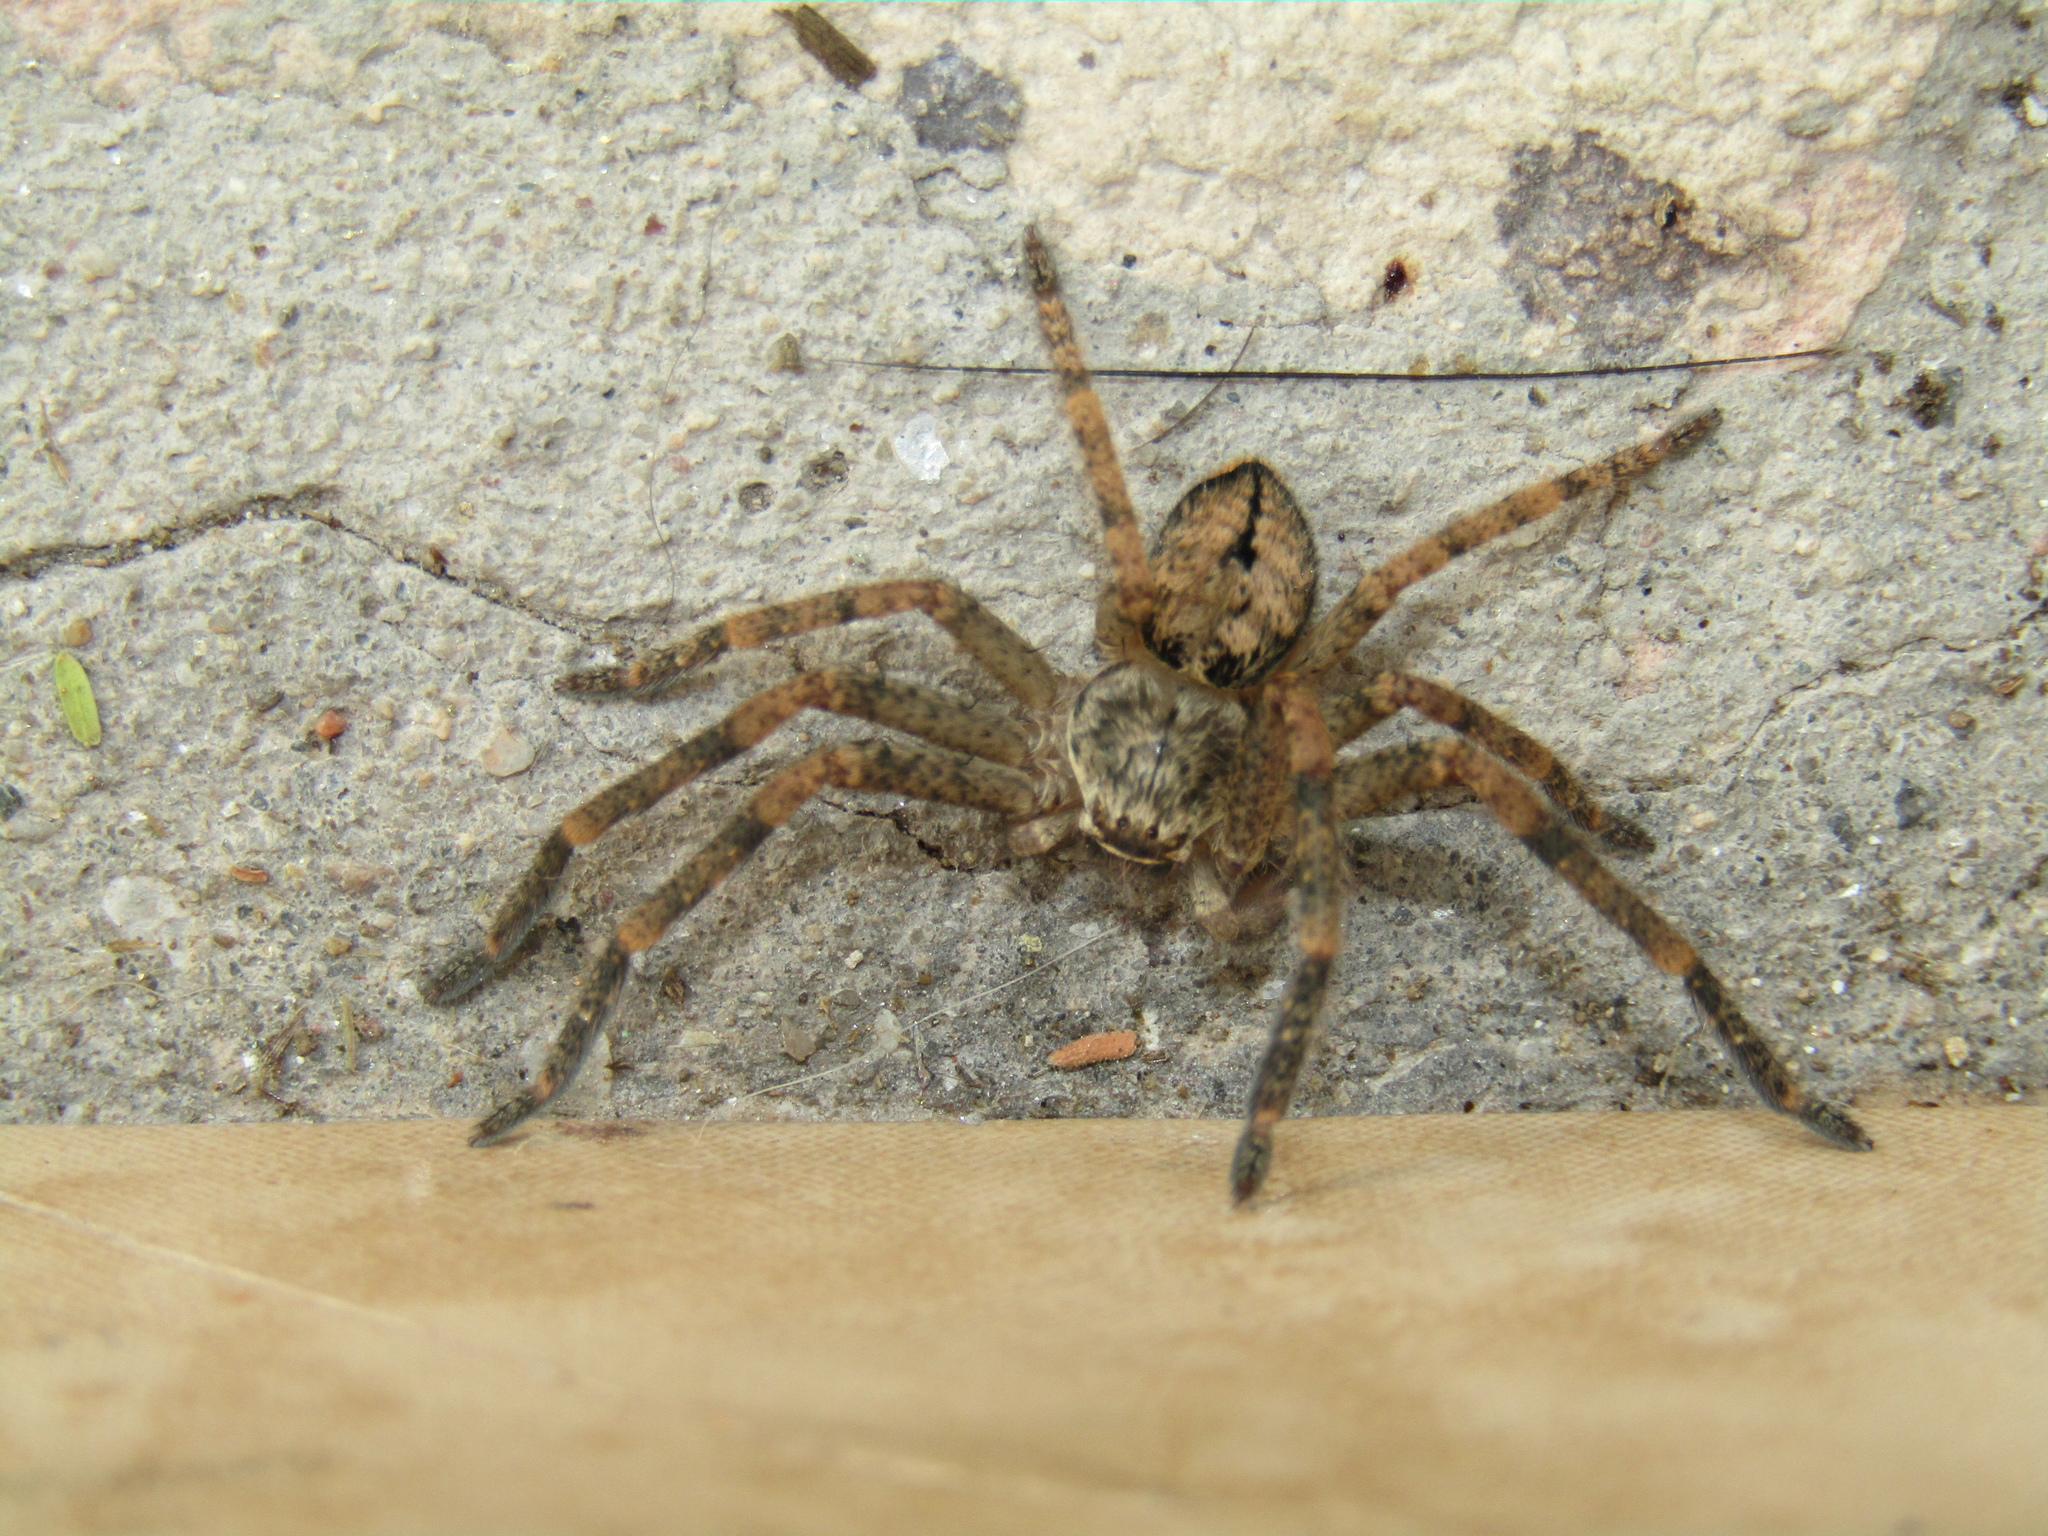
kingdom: Animalia
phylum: Arthropoda
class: Arachnida
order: Araneae
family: Sparassidae
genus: Polybetes
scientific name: Polybetes rapidus
